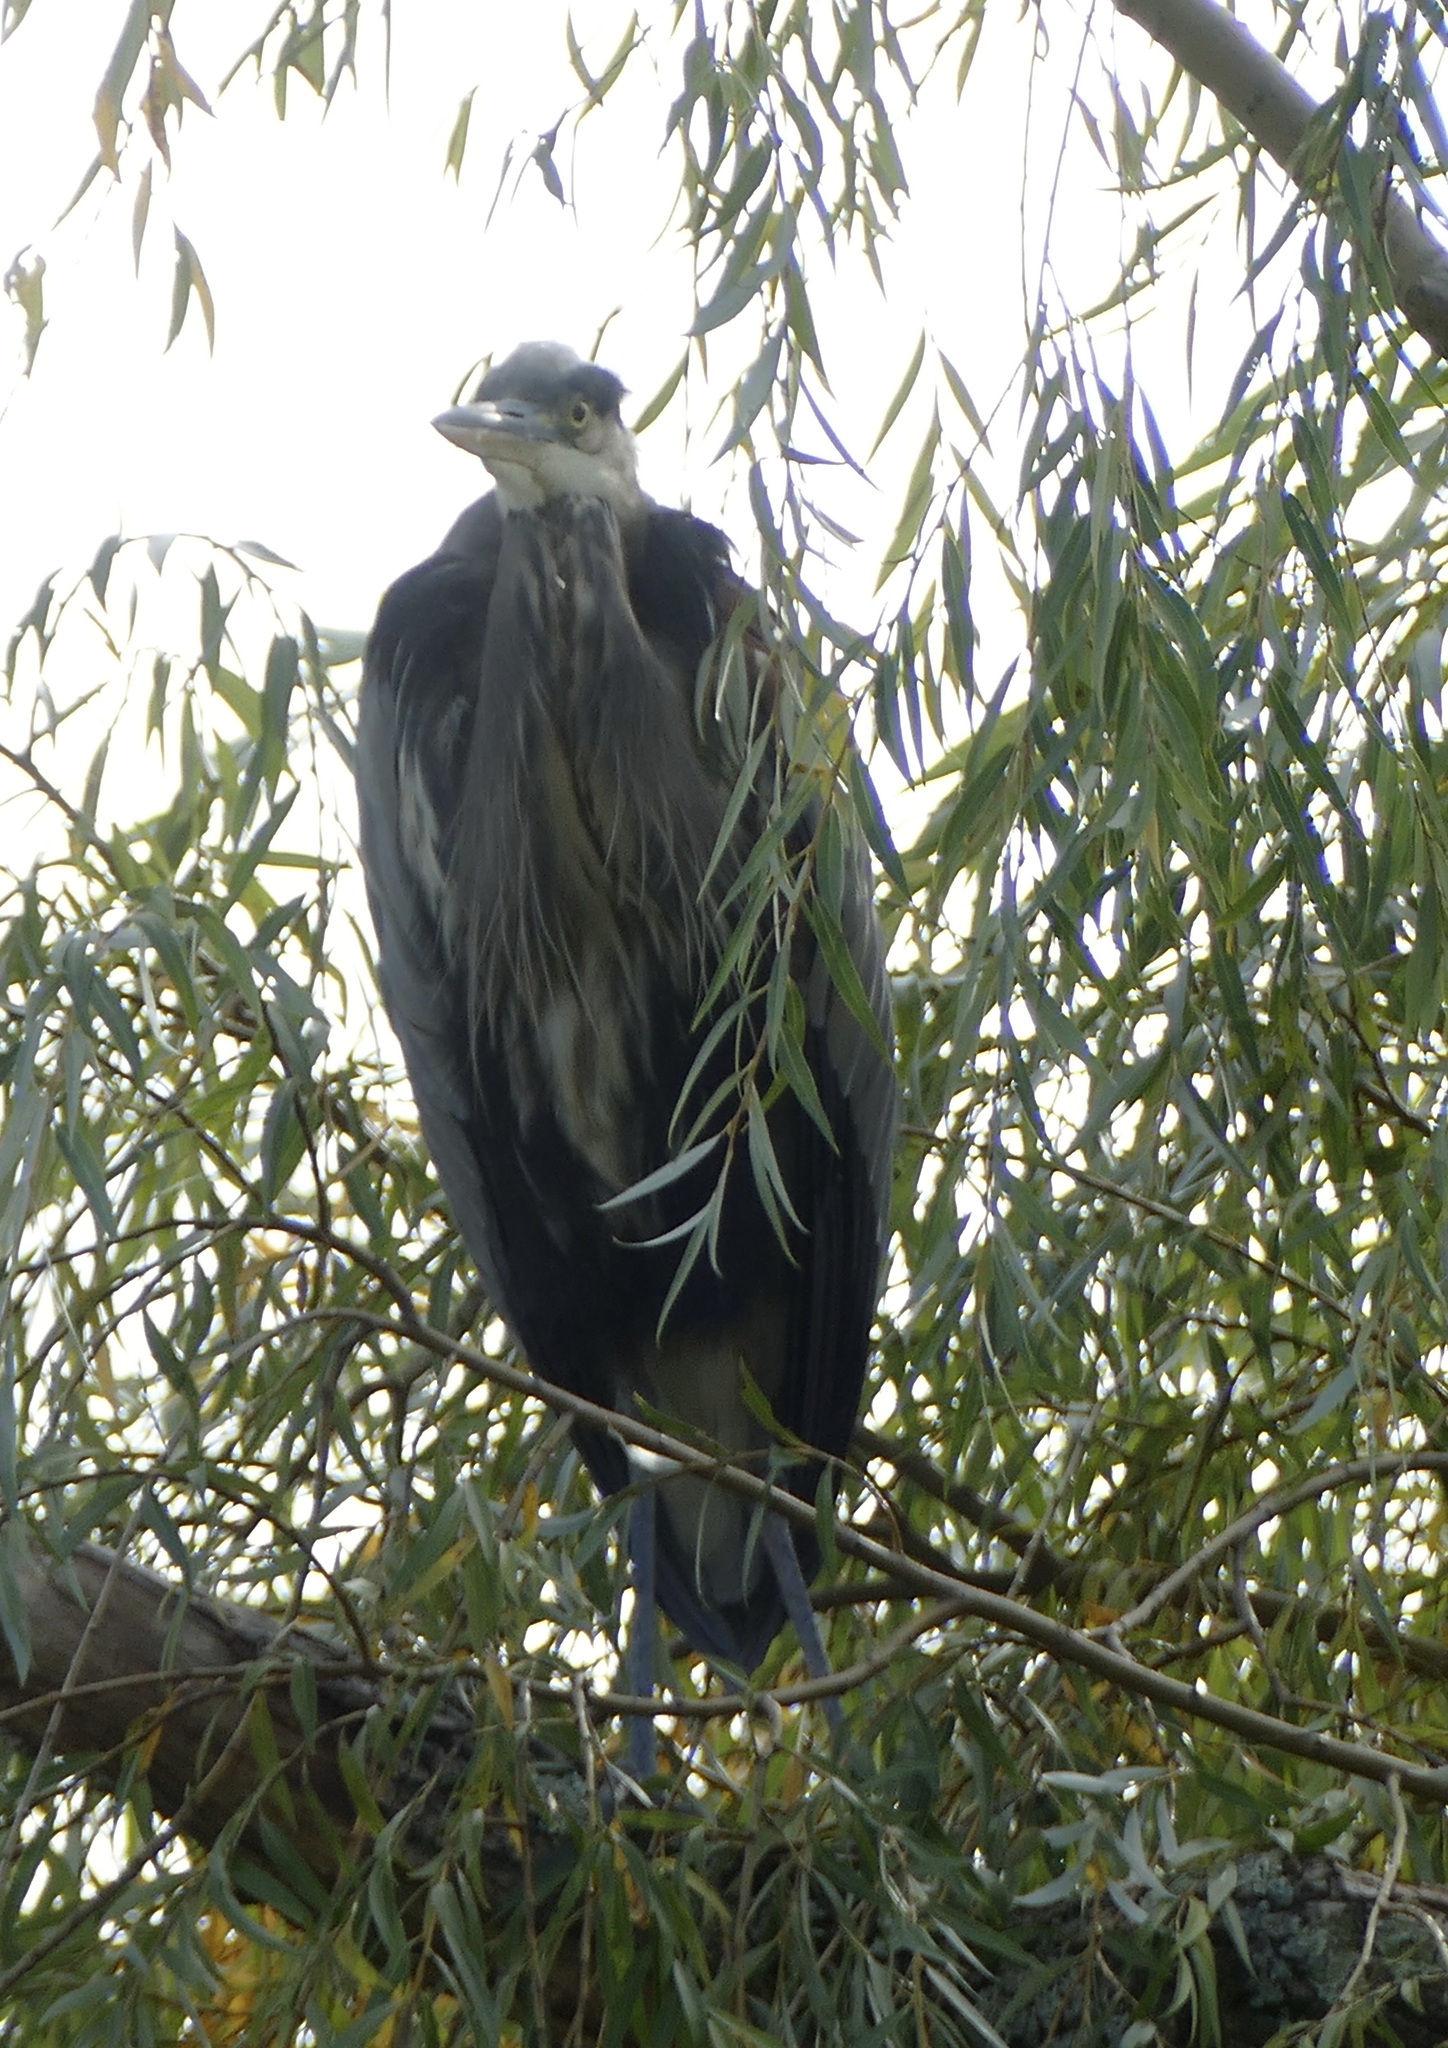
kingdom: Animalia
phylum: Chordata
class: Aves
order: Pelecaniformes
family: Ardeidae
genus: Ardea
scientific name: Ardea herodias
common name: Great blue heron
